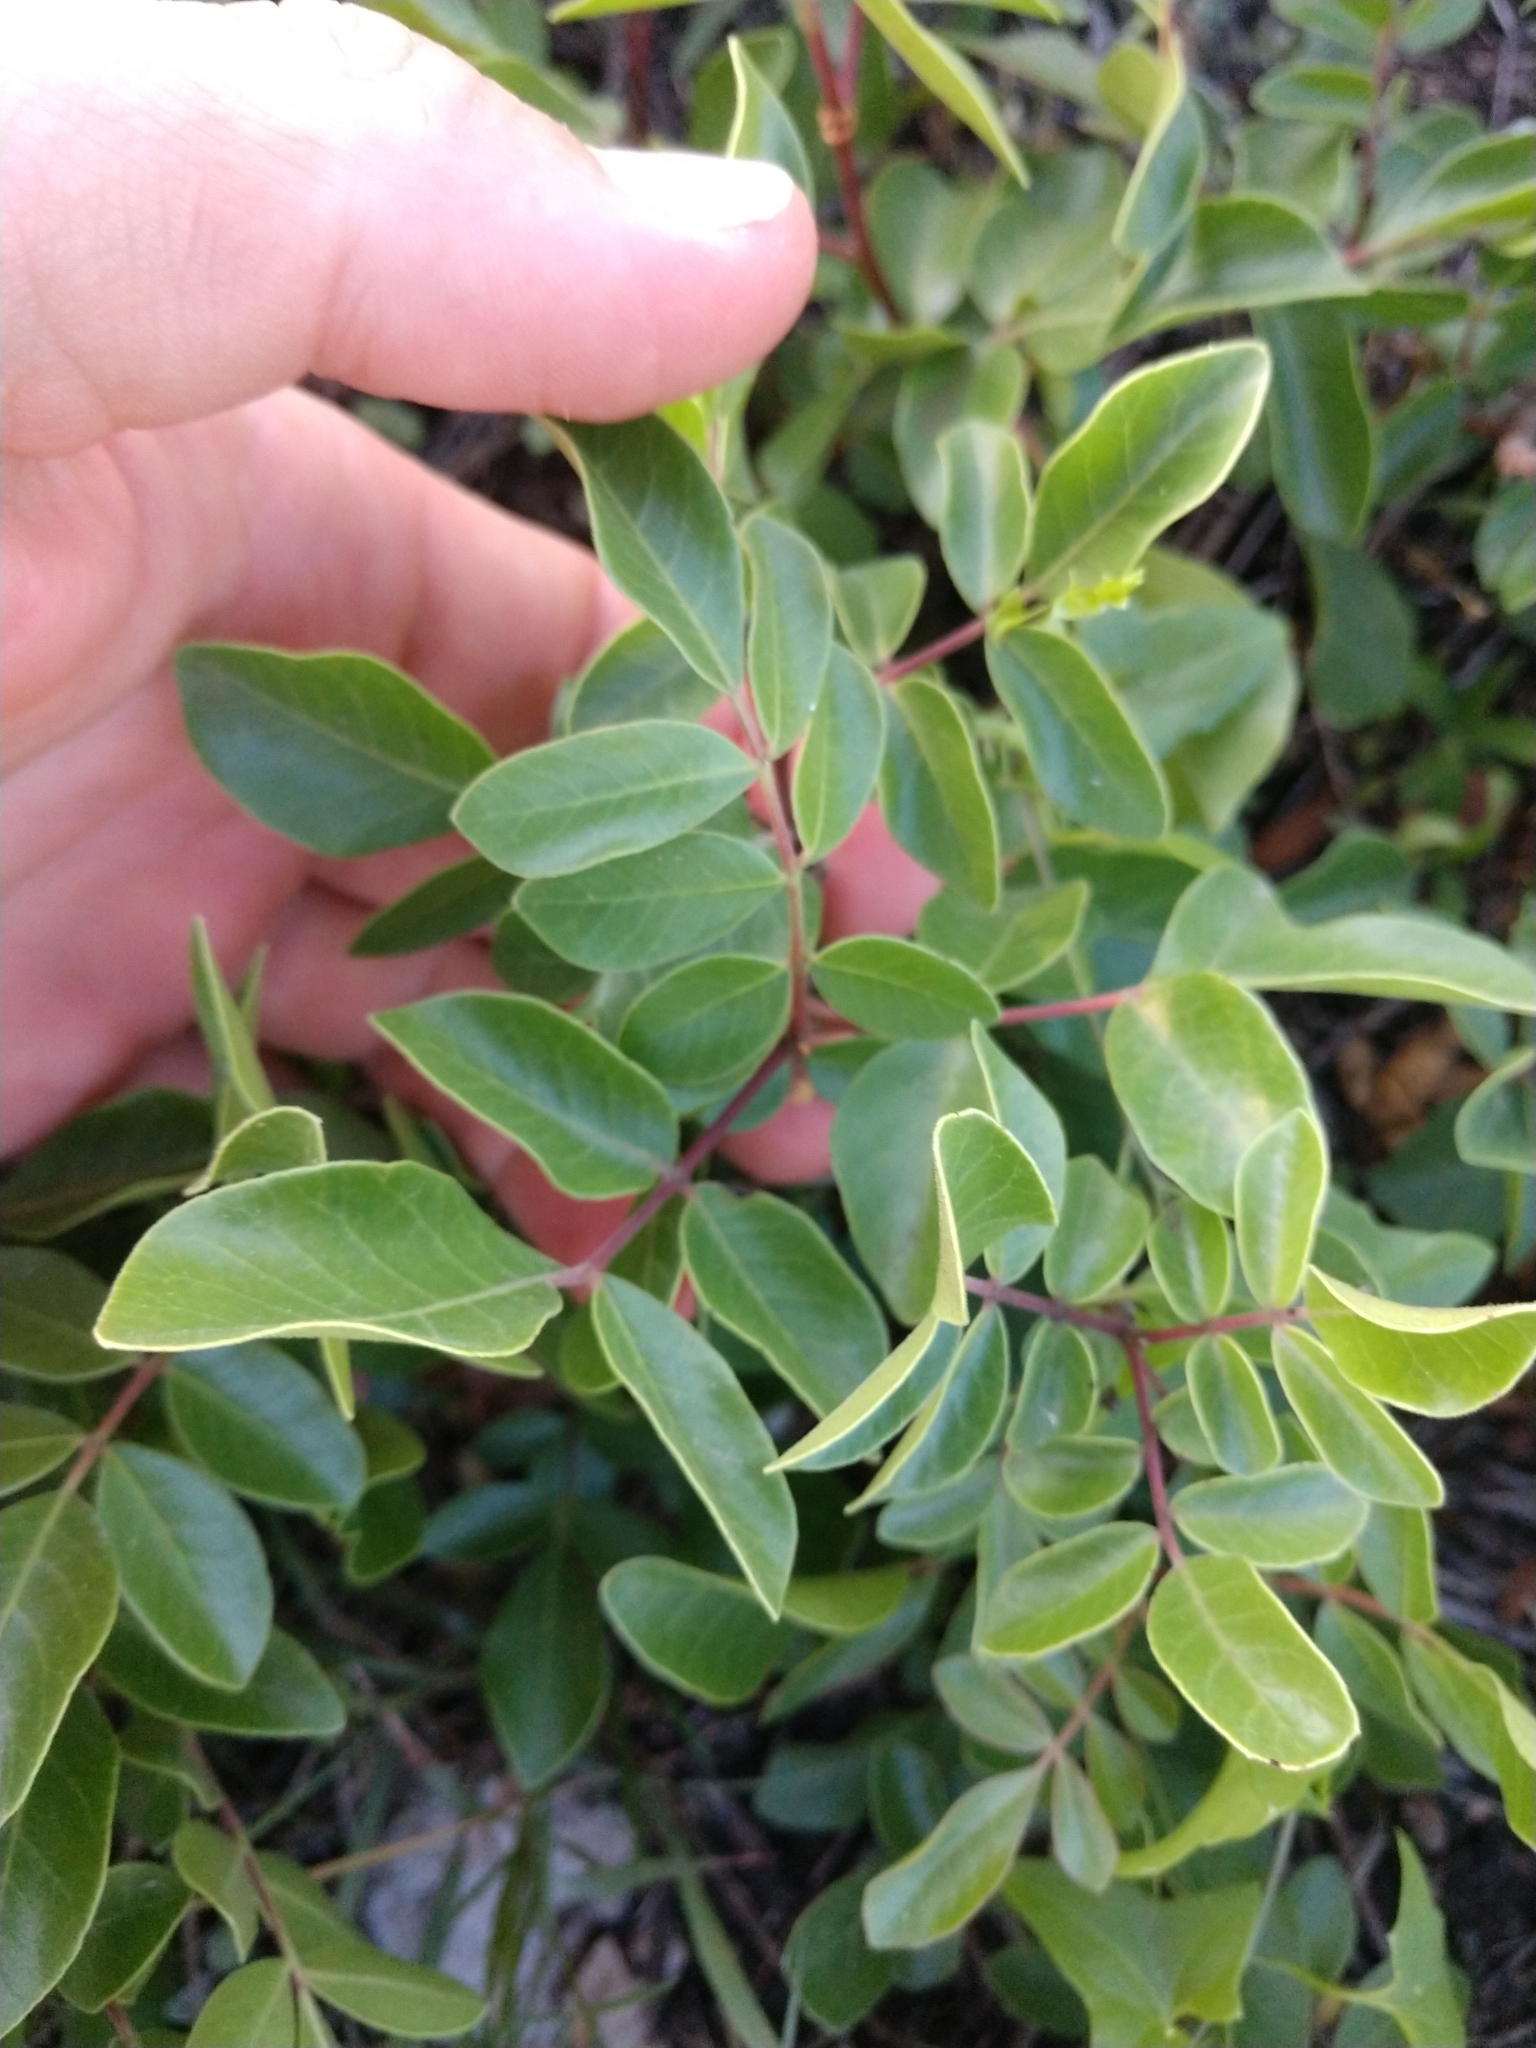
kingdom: Plantae
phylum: Tracheophyta
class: Magnoliopsida
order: Sapindales
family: Anacardiaceae
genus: Rhus
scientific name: Rhus virens
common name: Evergreen sumac
